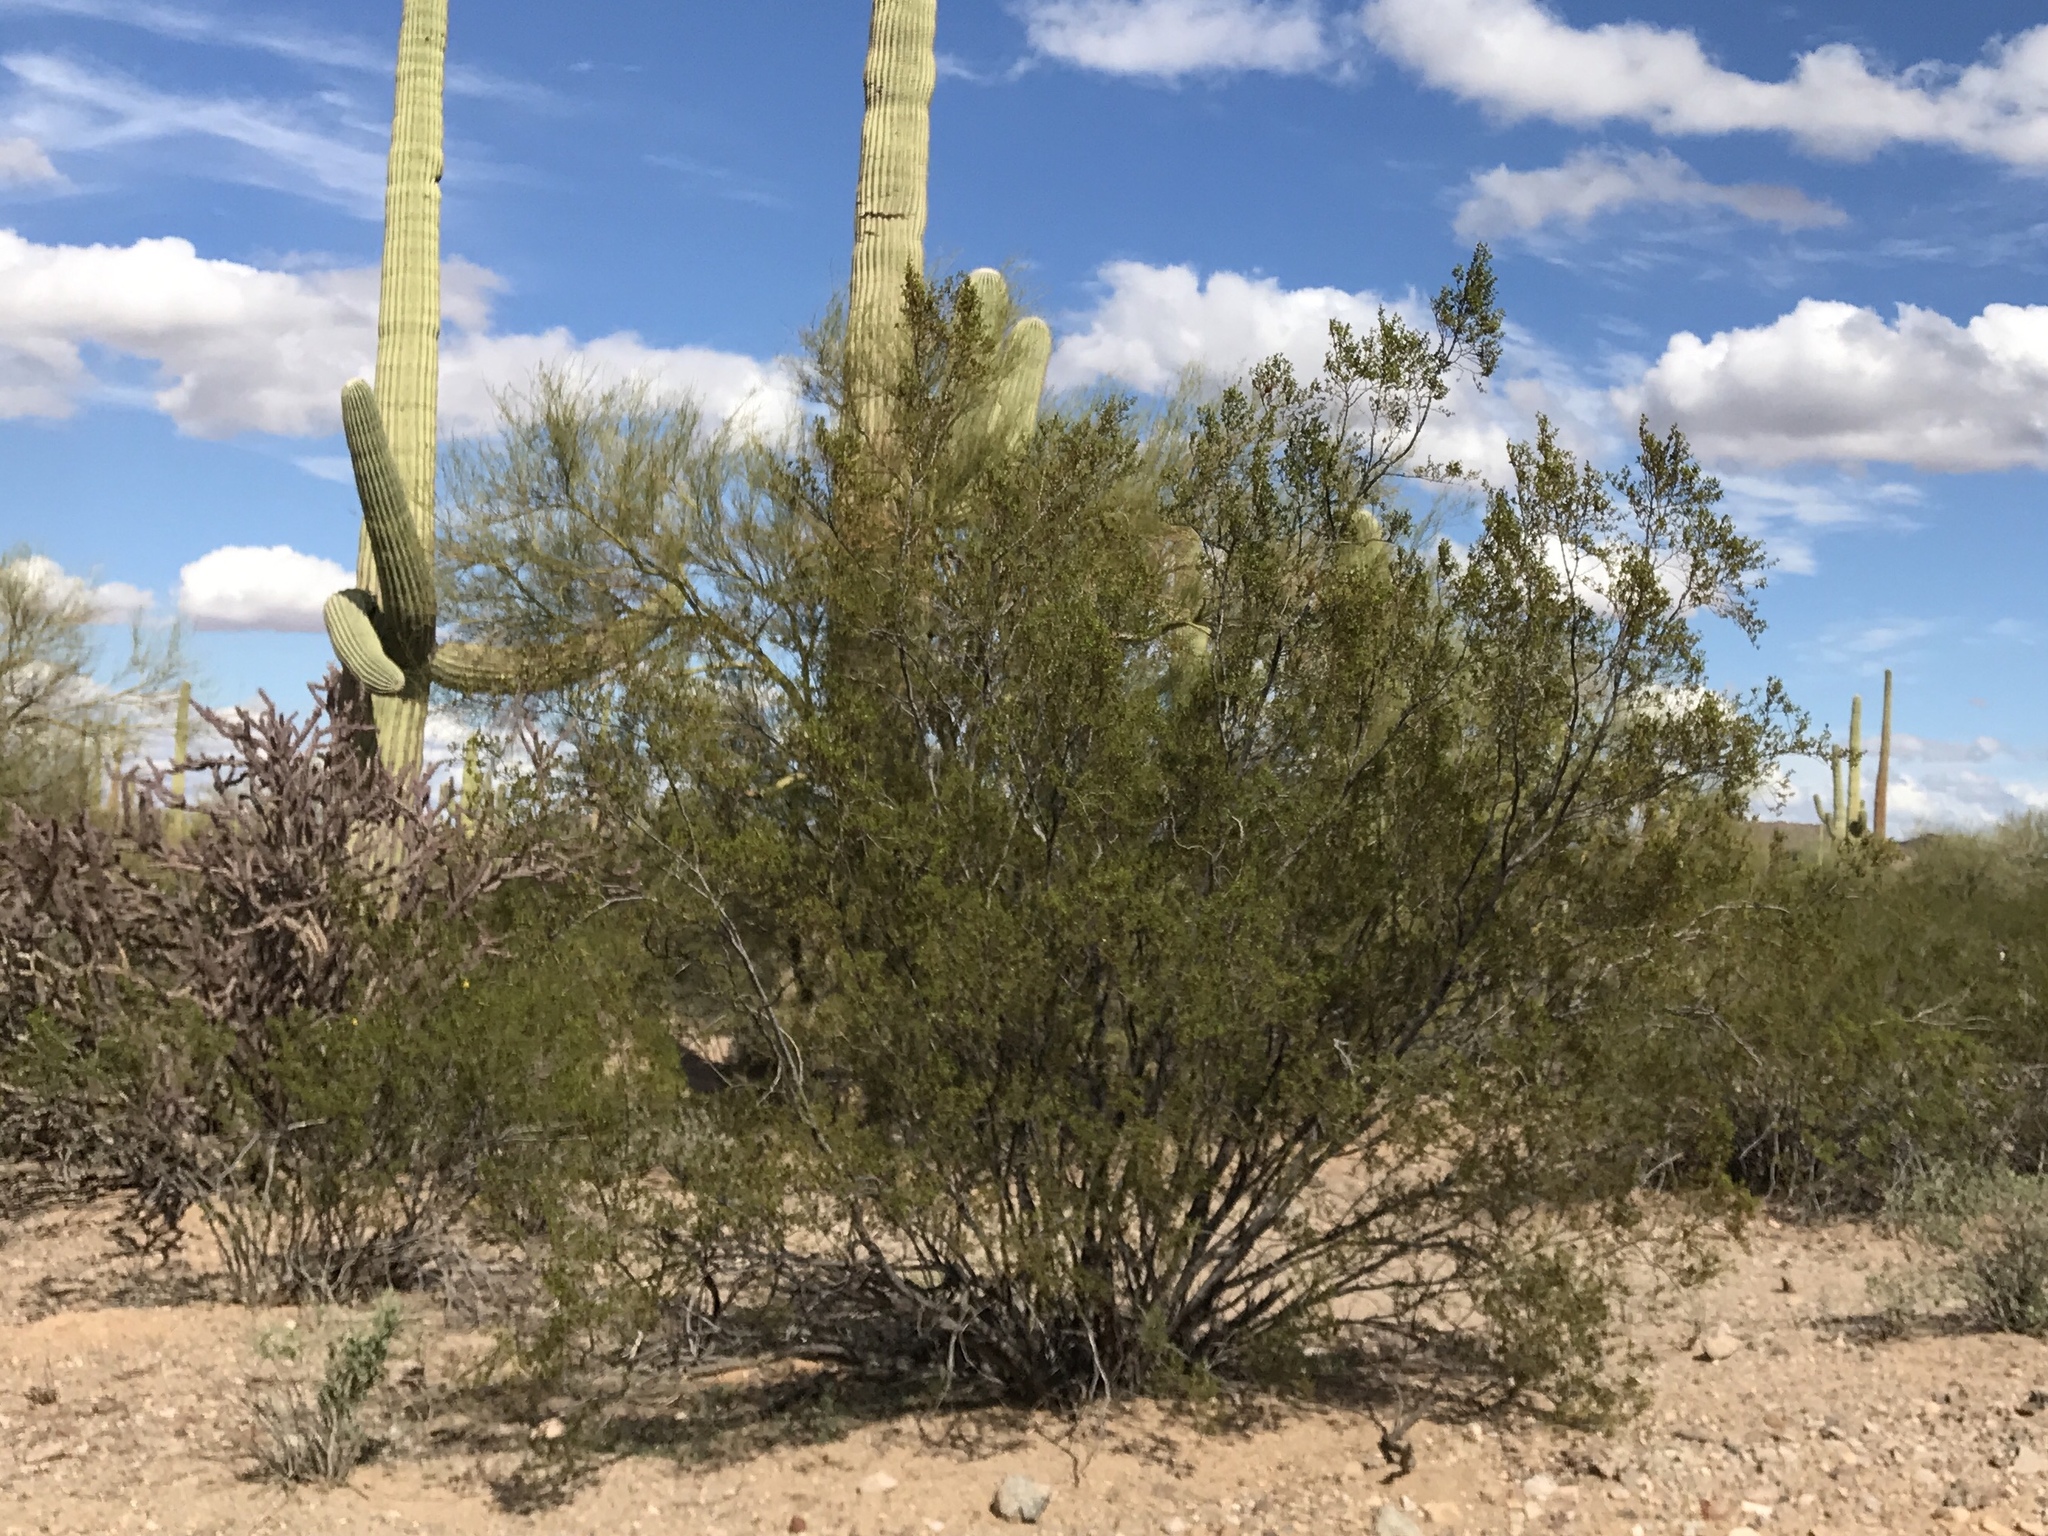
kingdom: Plantae
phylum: Tracheophyta
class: Magnoliopsida
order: Zygophyllales
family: Zygophyllaceae
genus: Larrea
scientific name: Larrea tridentata
